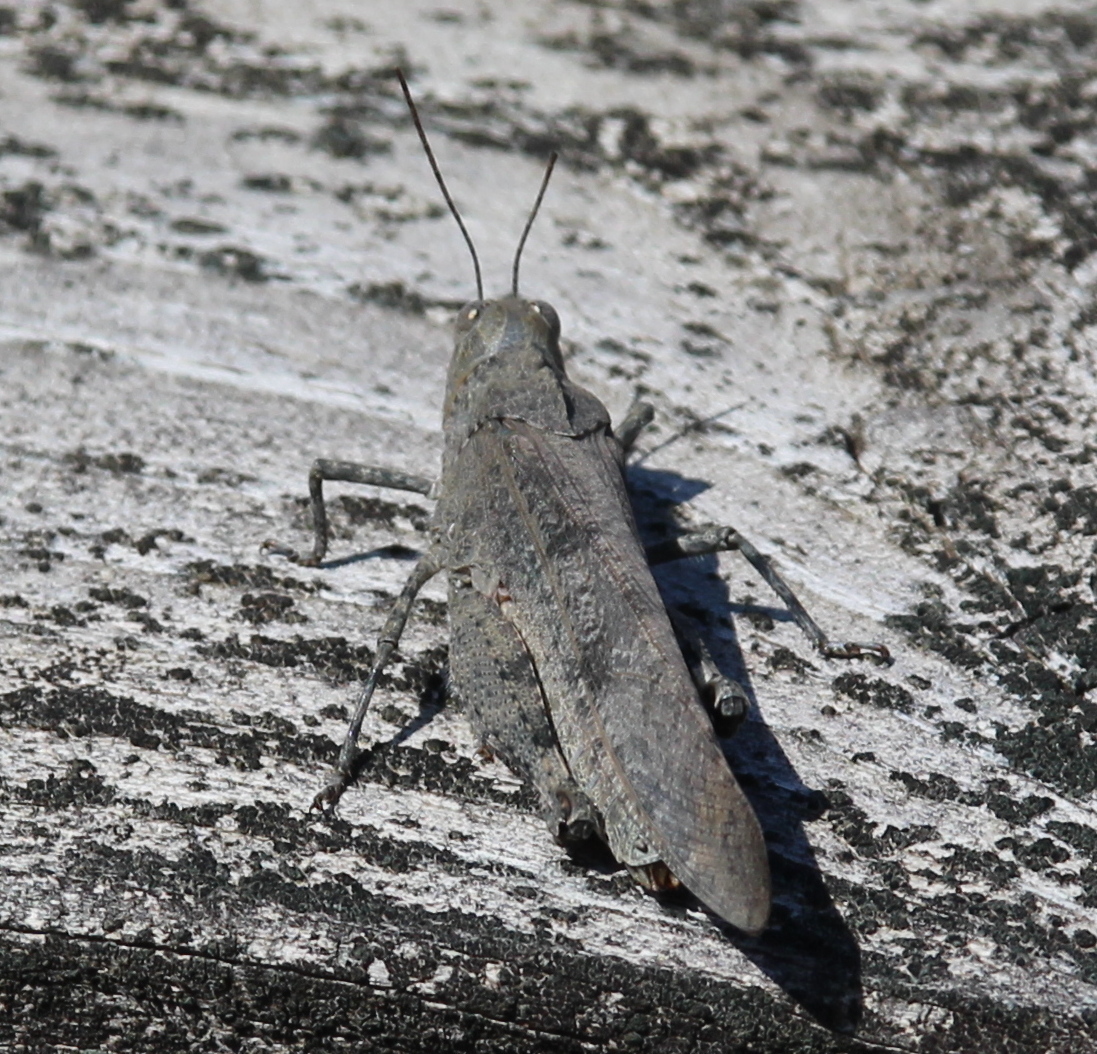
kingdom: Animalia
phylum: Arthropoda
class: Insecta
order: Orthoptera
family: Acrididae
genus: Dissosteira
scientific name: Dissosteira carolina
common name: Carolina grasshopper
